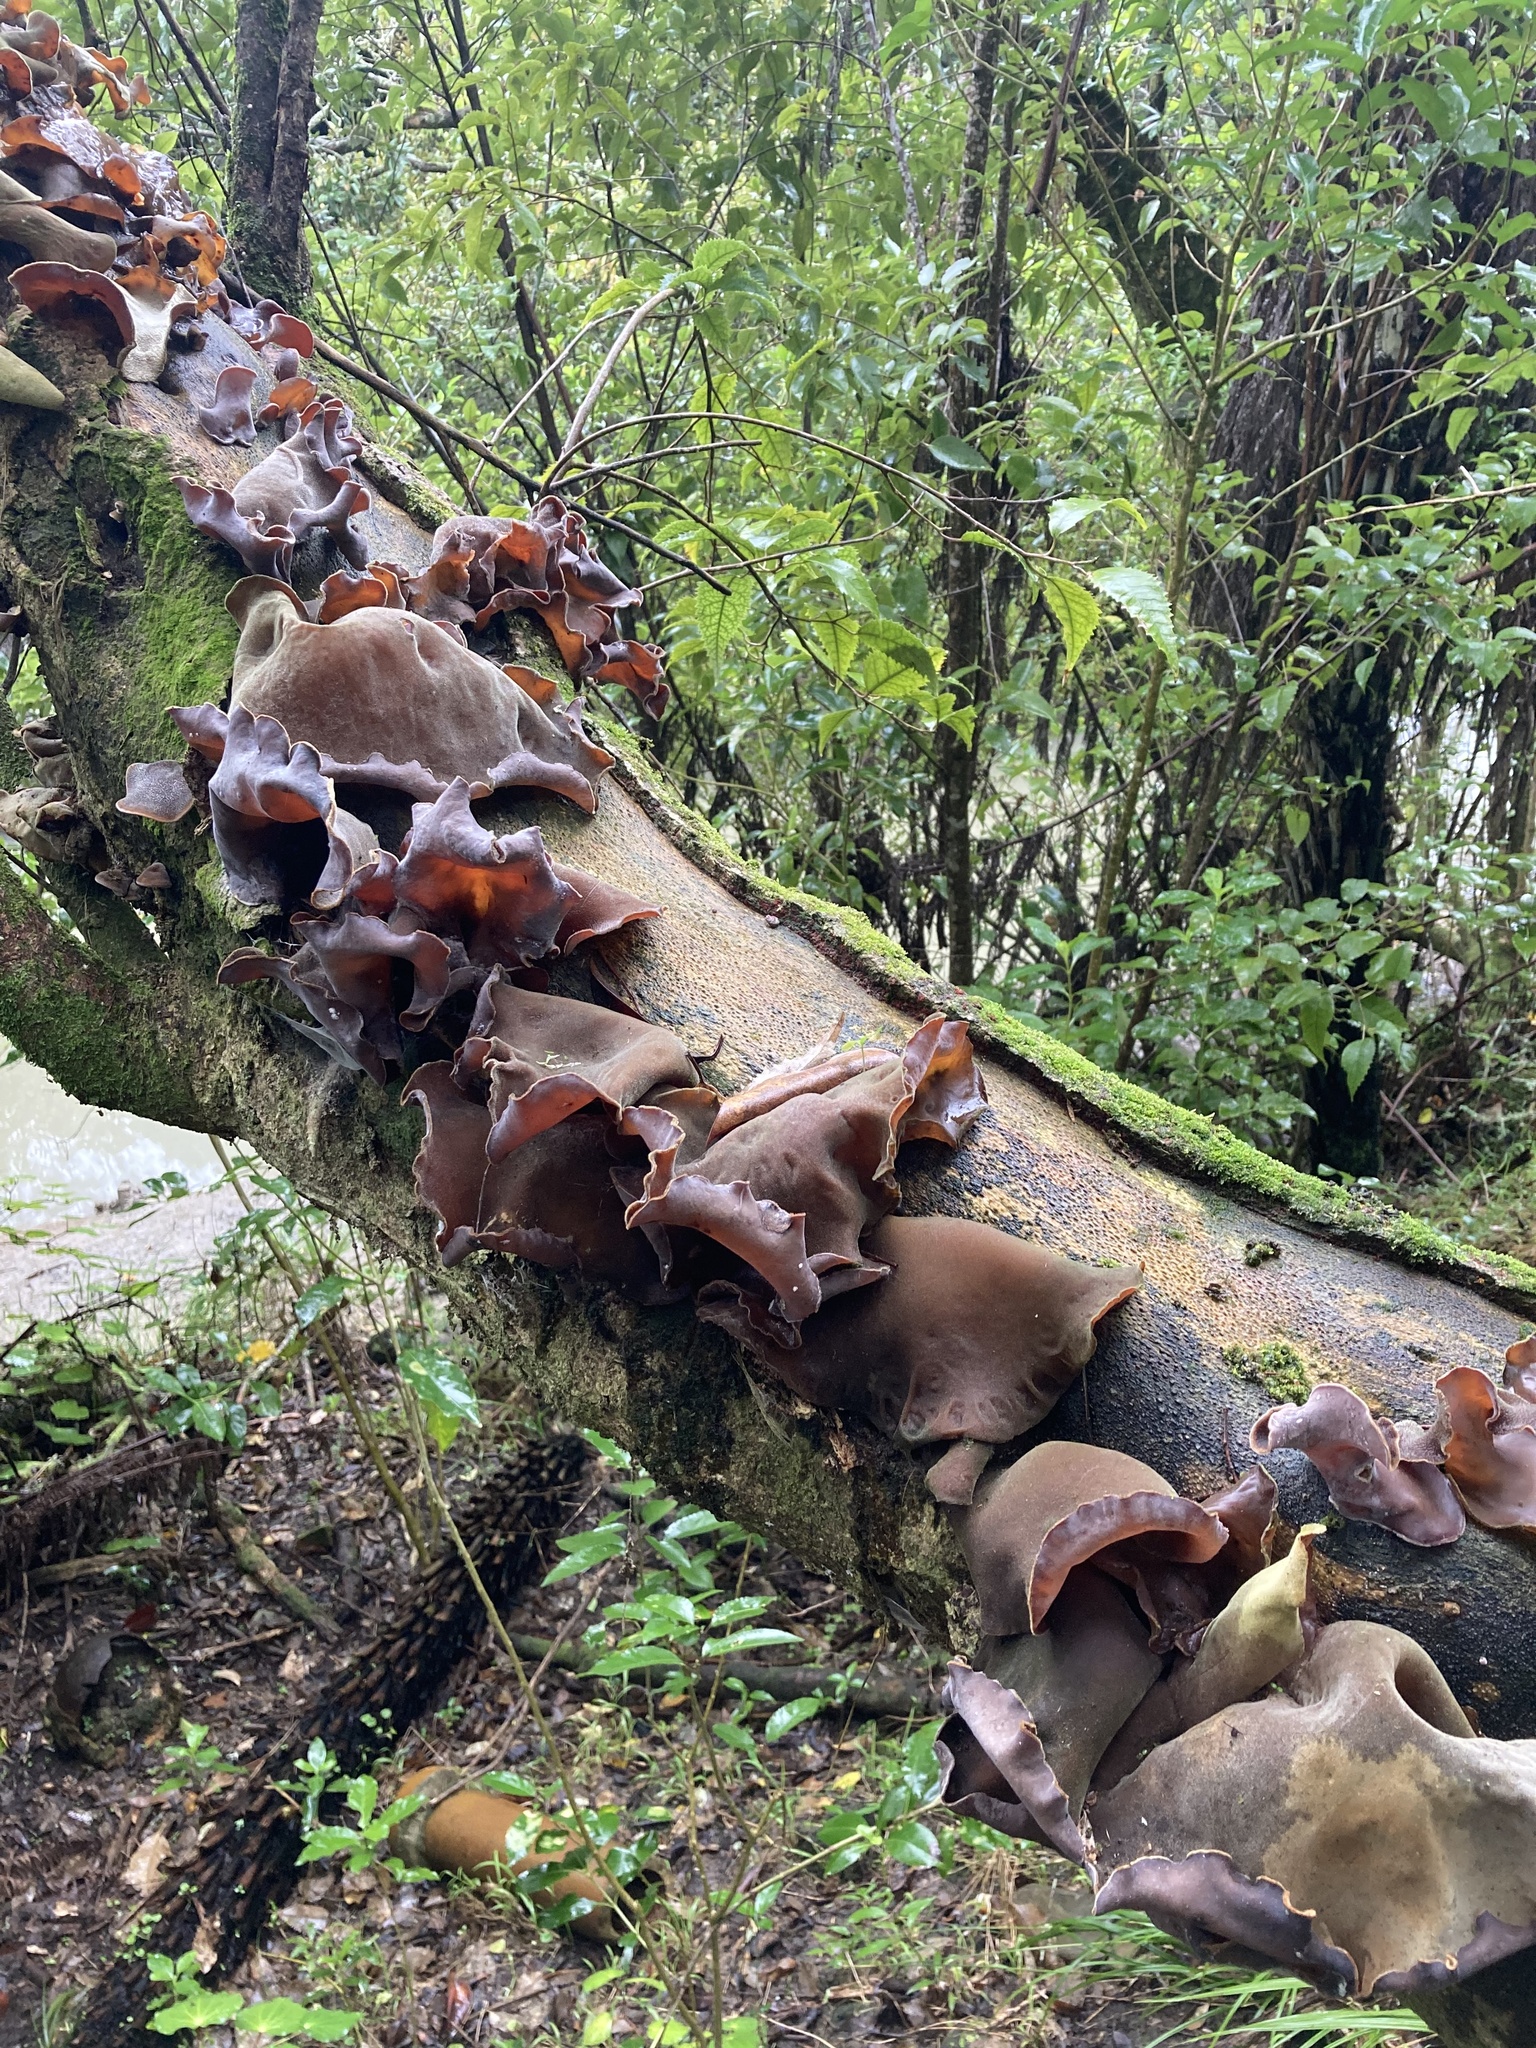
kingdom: Fungi
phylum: Basidiomycota
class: Agaricomycetes
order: Auriculariales
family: Auriculariaceae
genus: Auricularia
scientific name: Auricularia cornea
